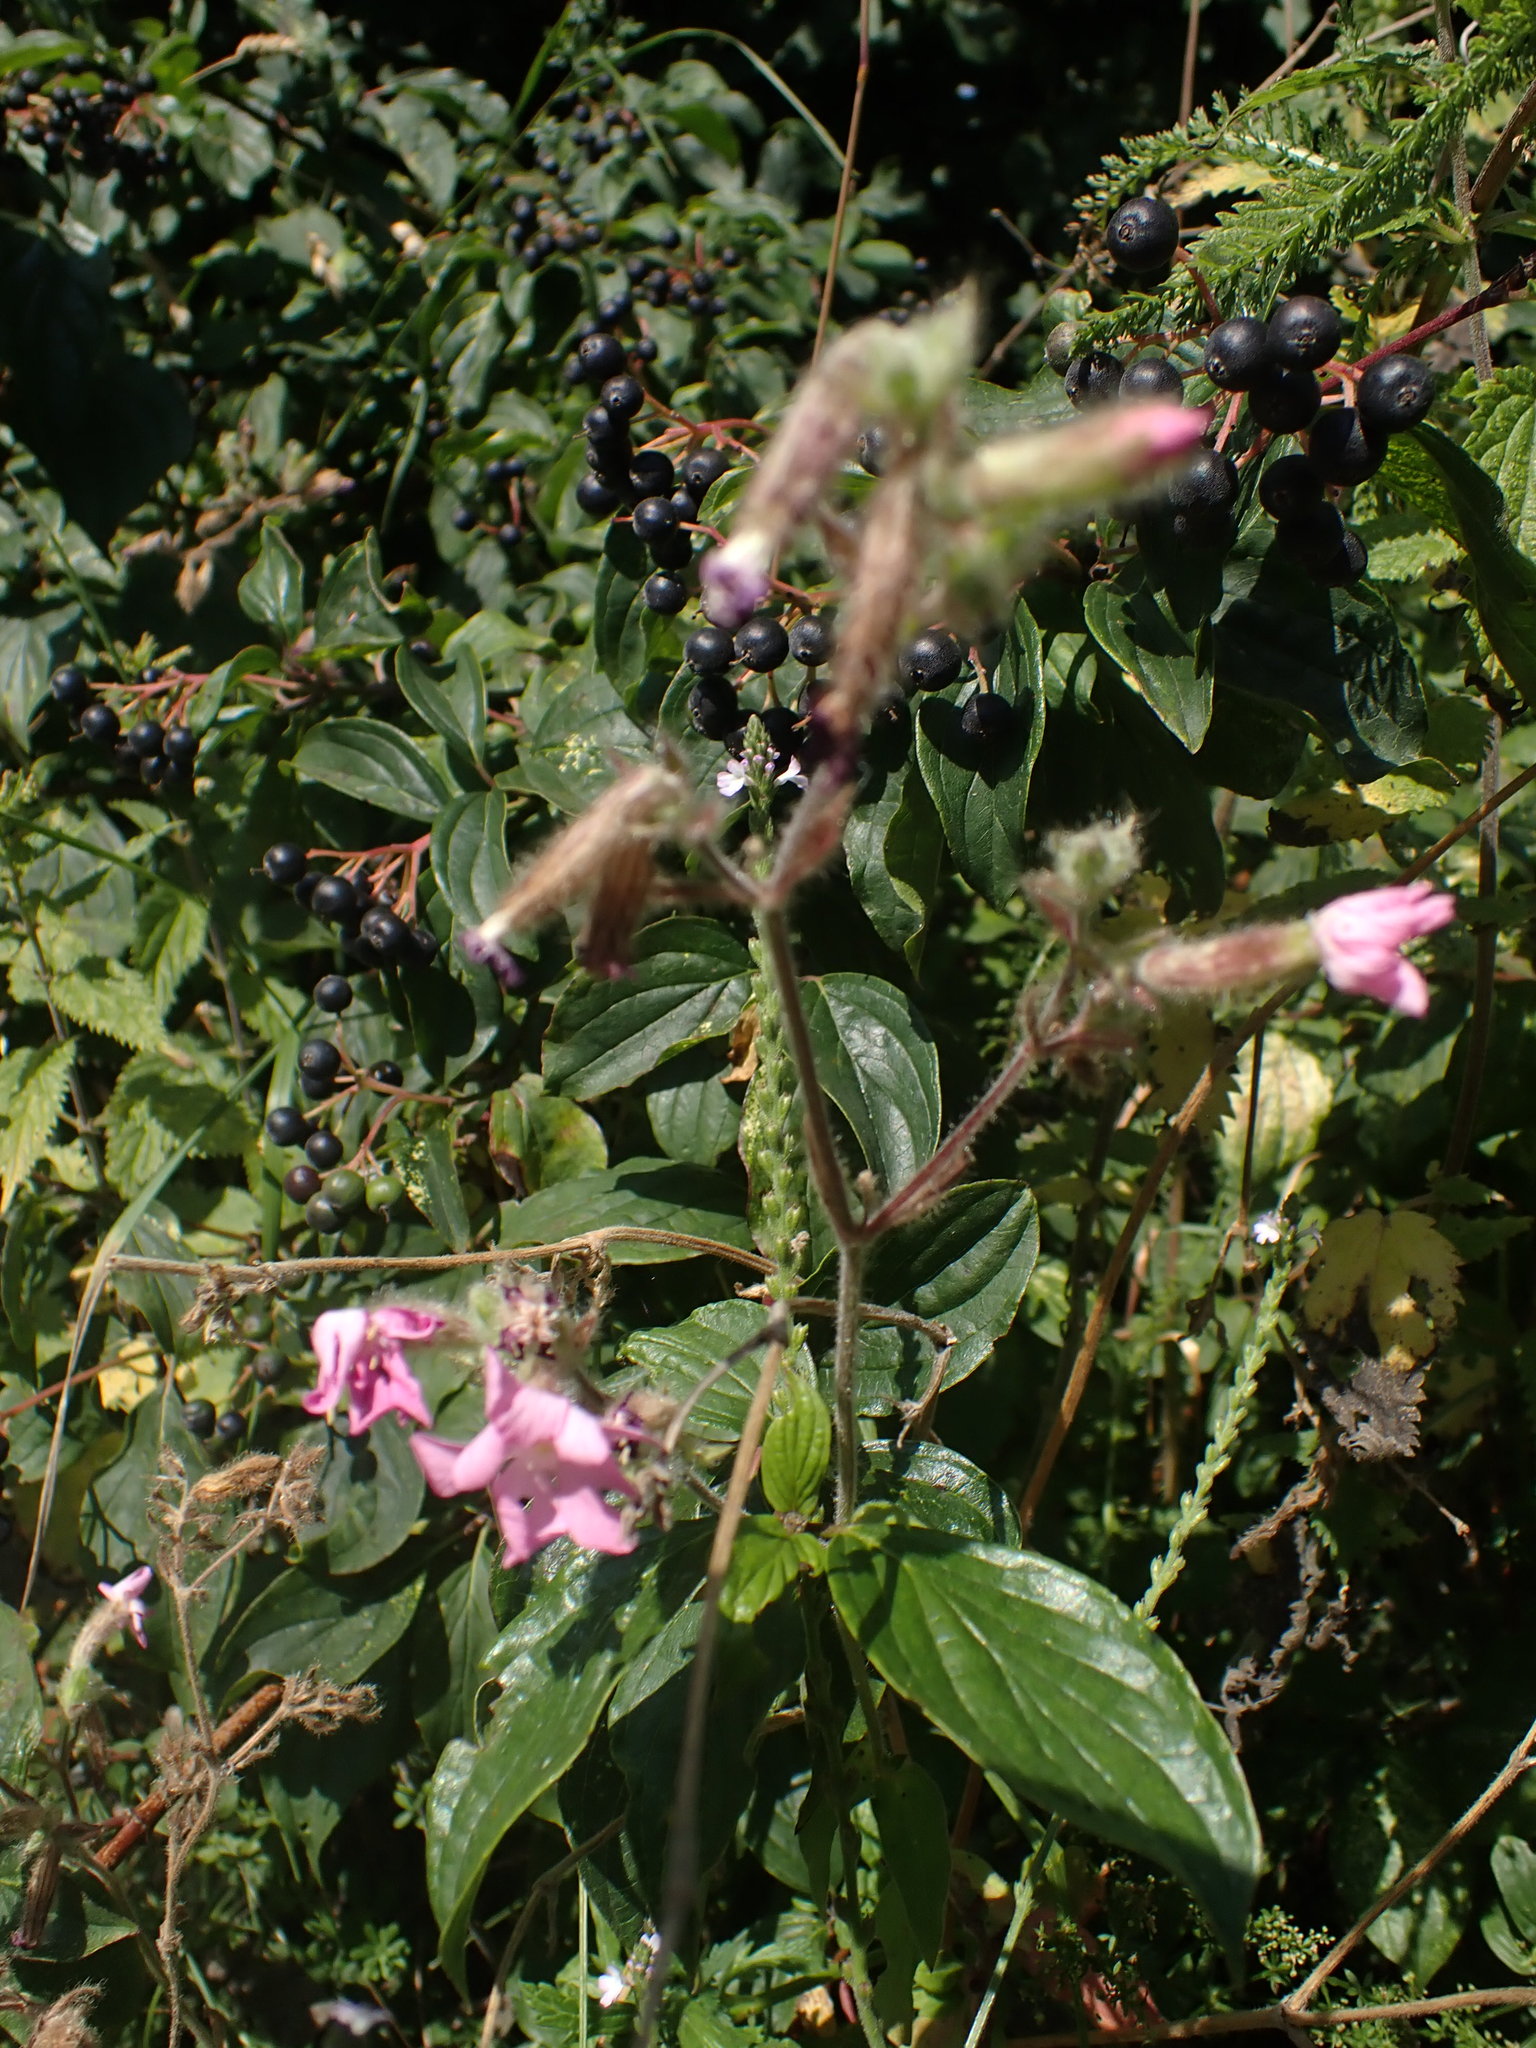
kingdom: Plantae
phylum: Tracheophyta
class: Magnoliopsida
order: Caryophyllales
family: Caryophyllaceae
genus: Silene
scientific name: Silene dioica
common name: Red campion
